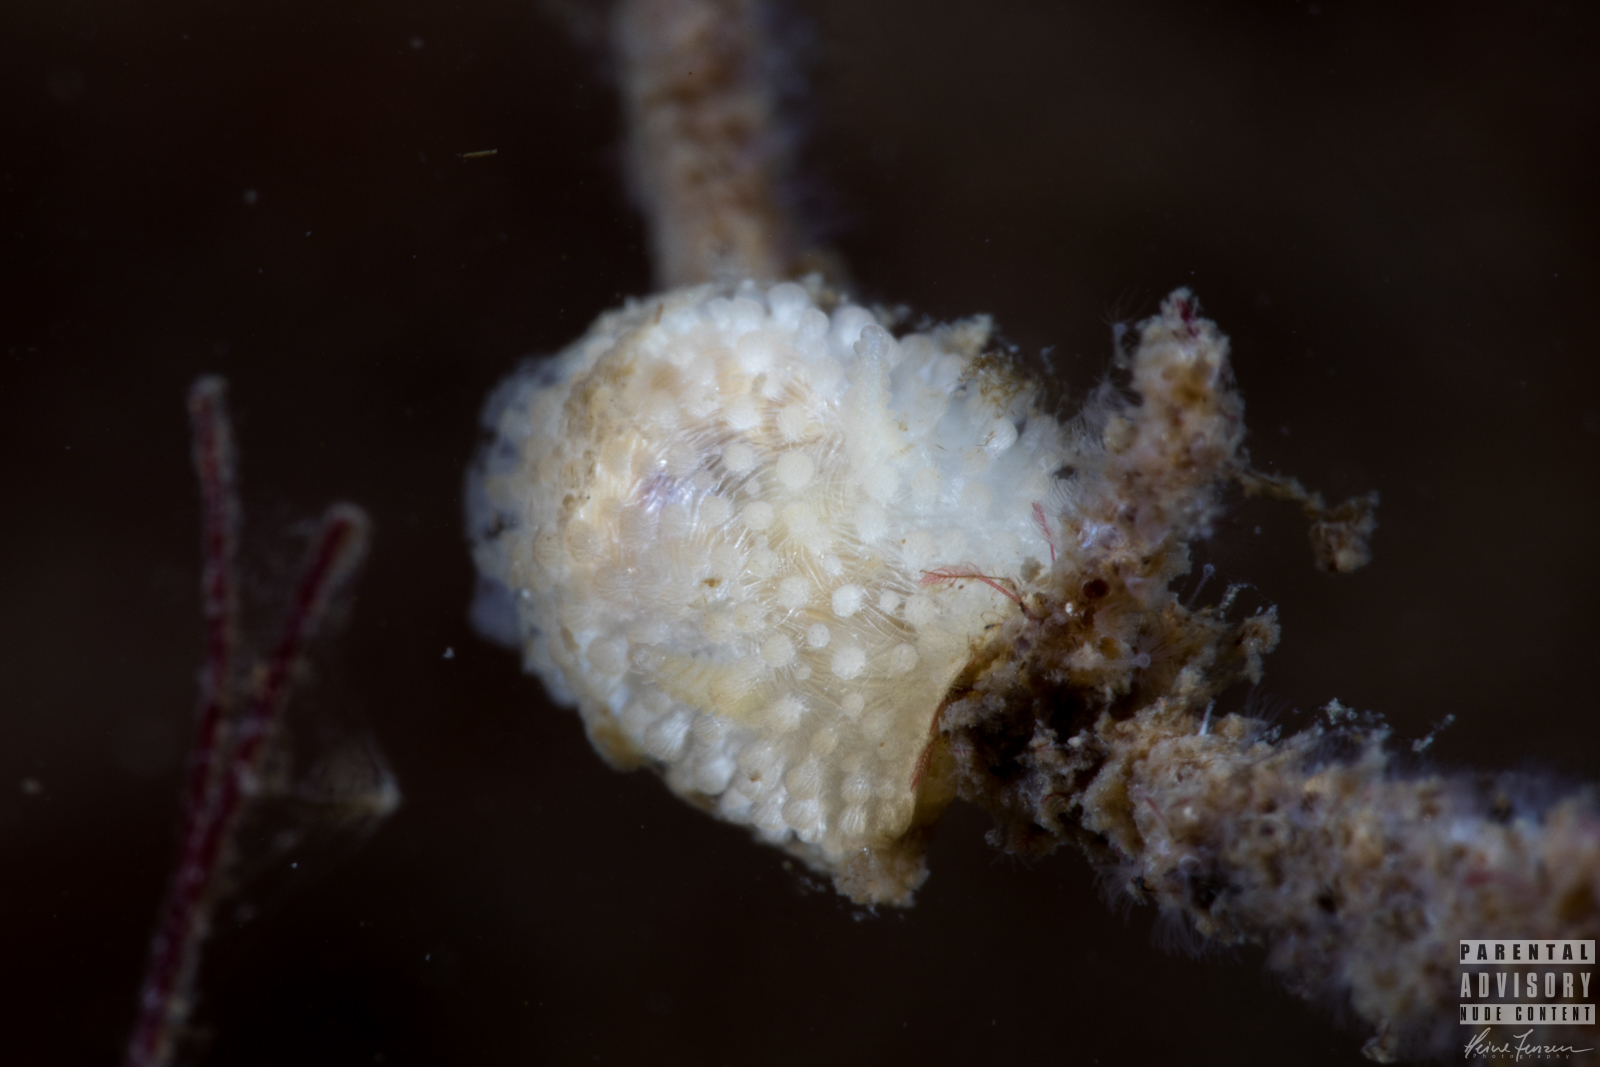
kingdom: Animalia
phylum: Mollusca
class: Gastropoda
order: Nudibranchia
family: Onchidorididae
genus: Onchidoris
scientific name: Onchidoris muricata
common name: Rough doris
